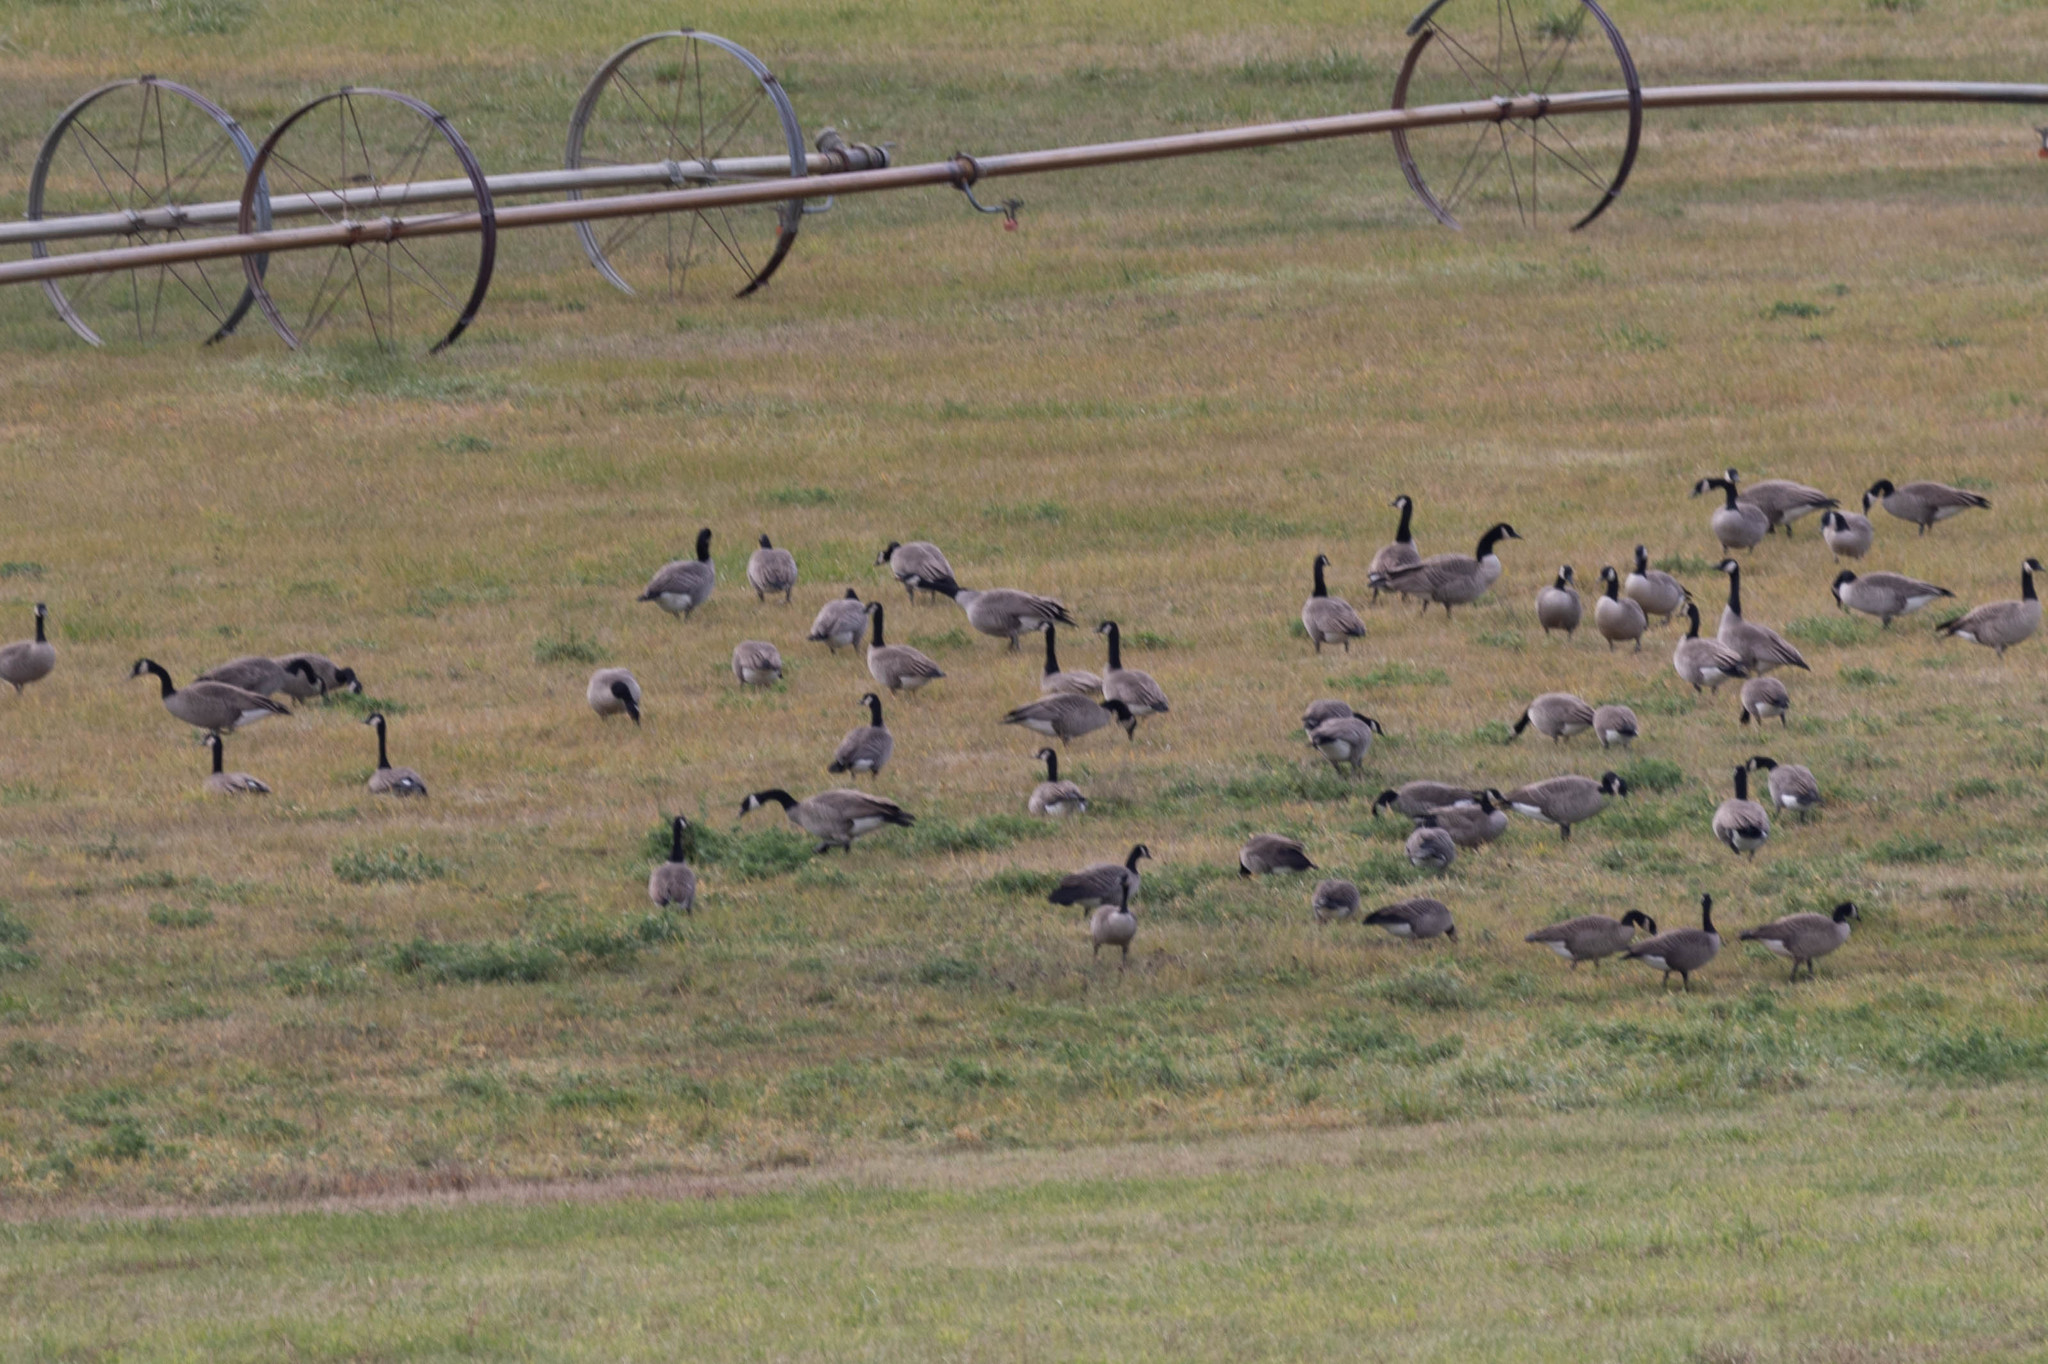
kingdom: Animalia
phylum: Chordata
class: Aves
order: Anseriformes
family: Anatidae
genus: Branta
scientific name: Branta canadensis
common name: Canada goose
